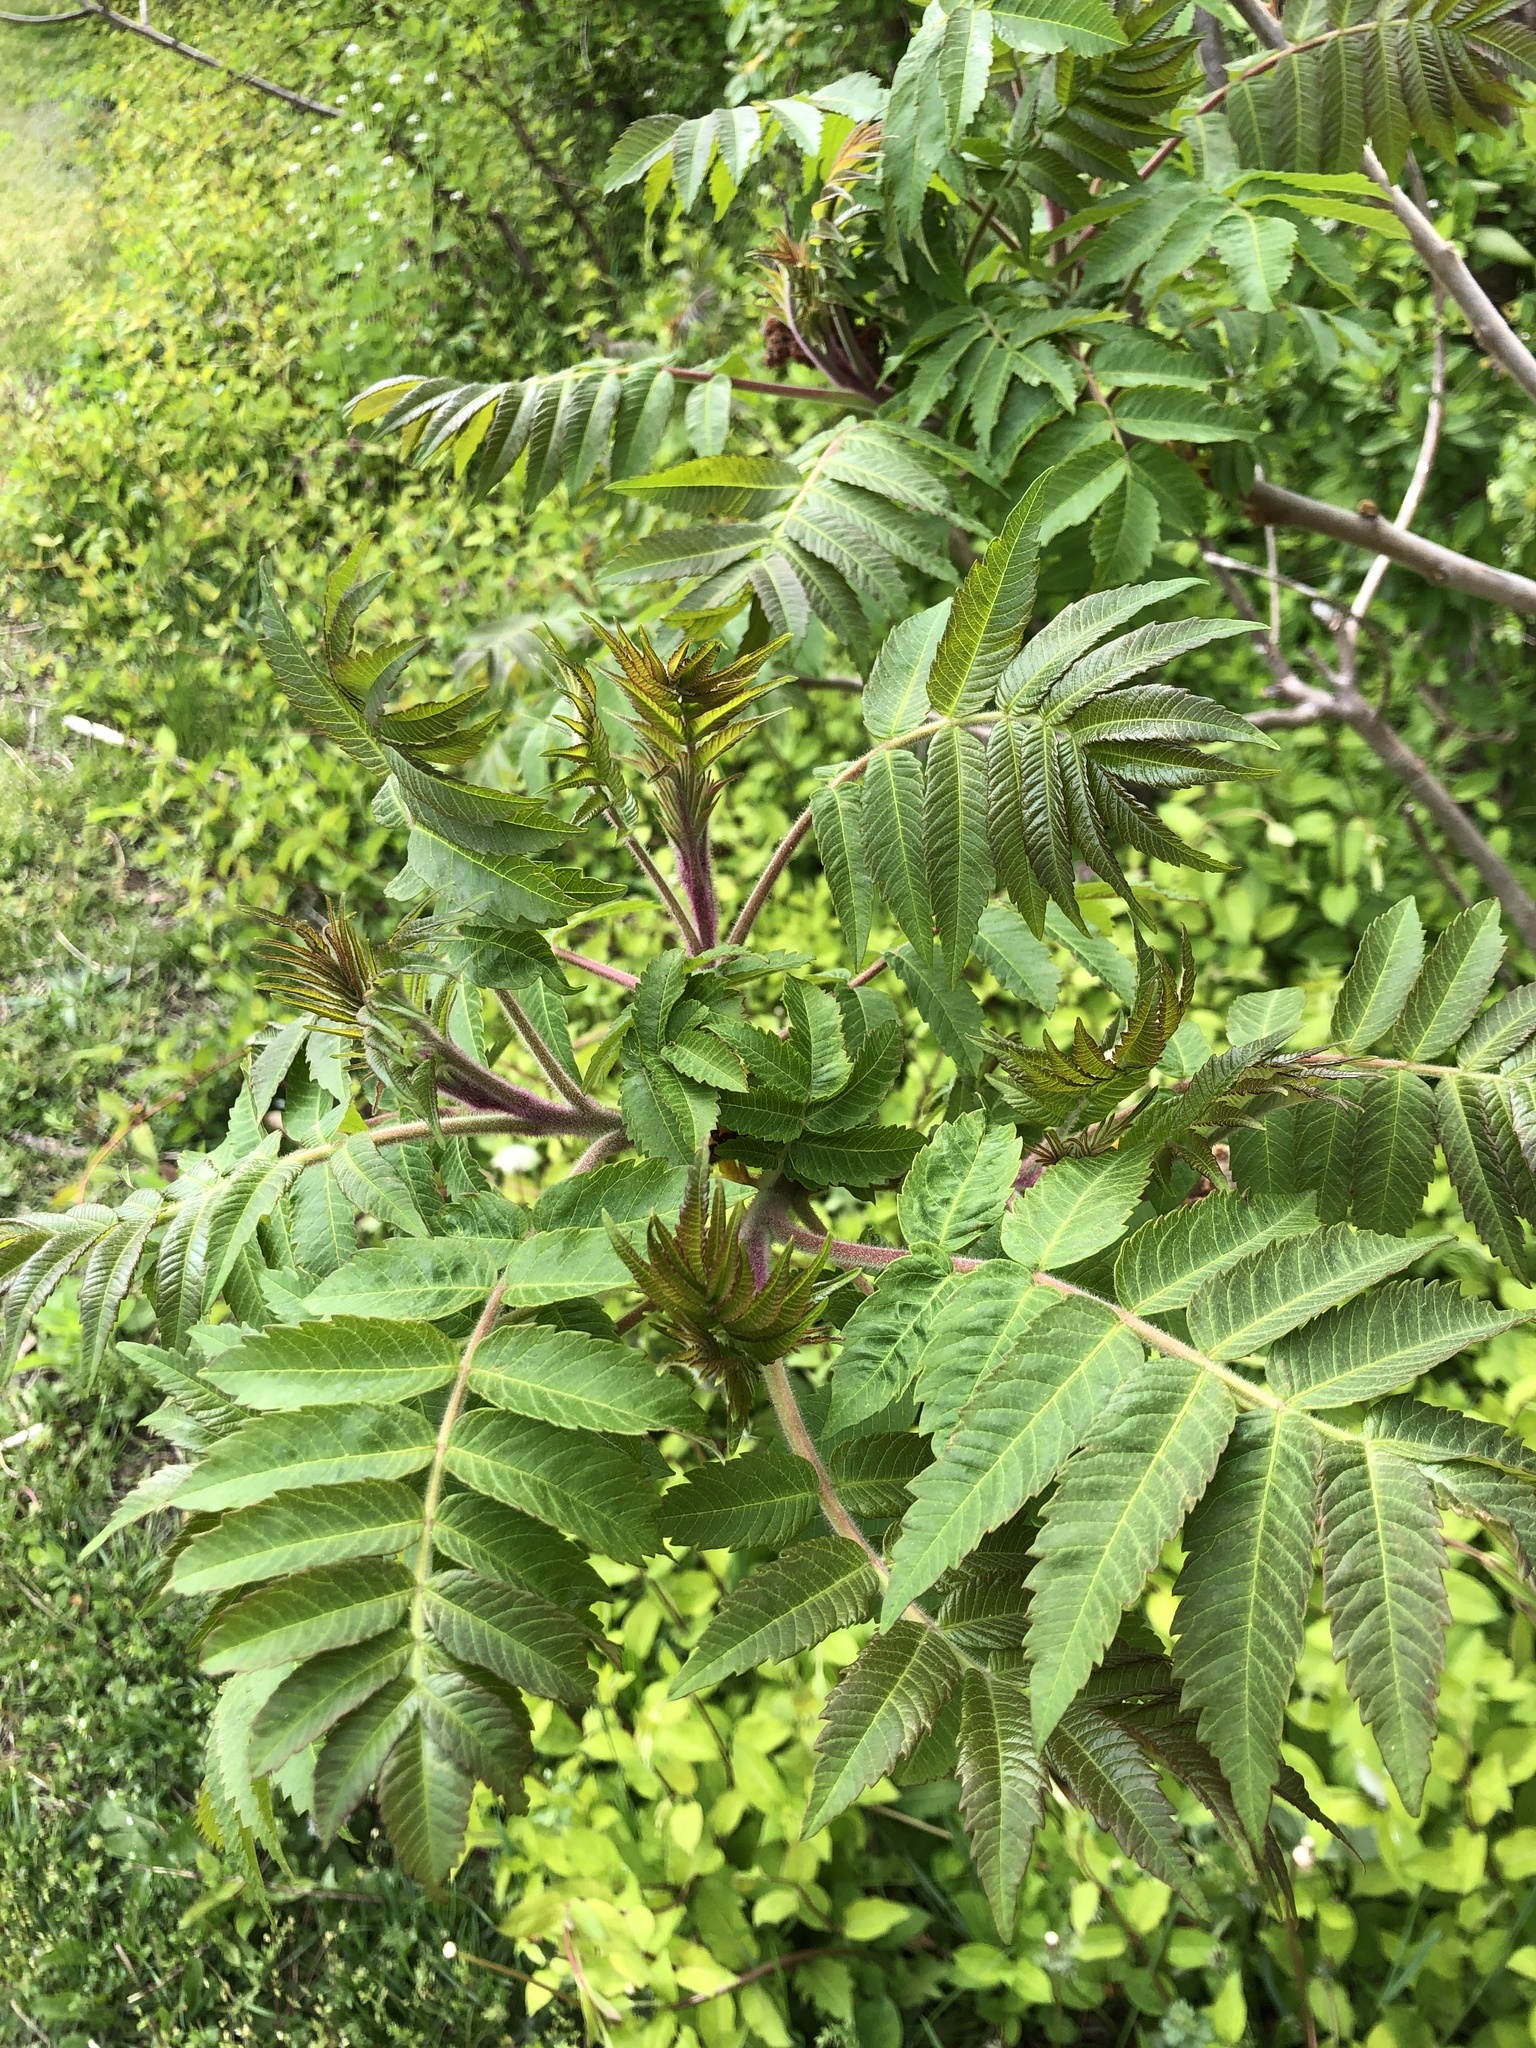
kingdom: Plantae
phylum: Tracheophyta
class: Magnoliopsida
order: Sapindales
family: Anacardiaceae
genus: Rhus
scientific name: Rhus typhina
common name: Staghorn sumac
